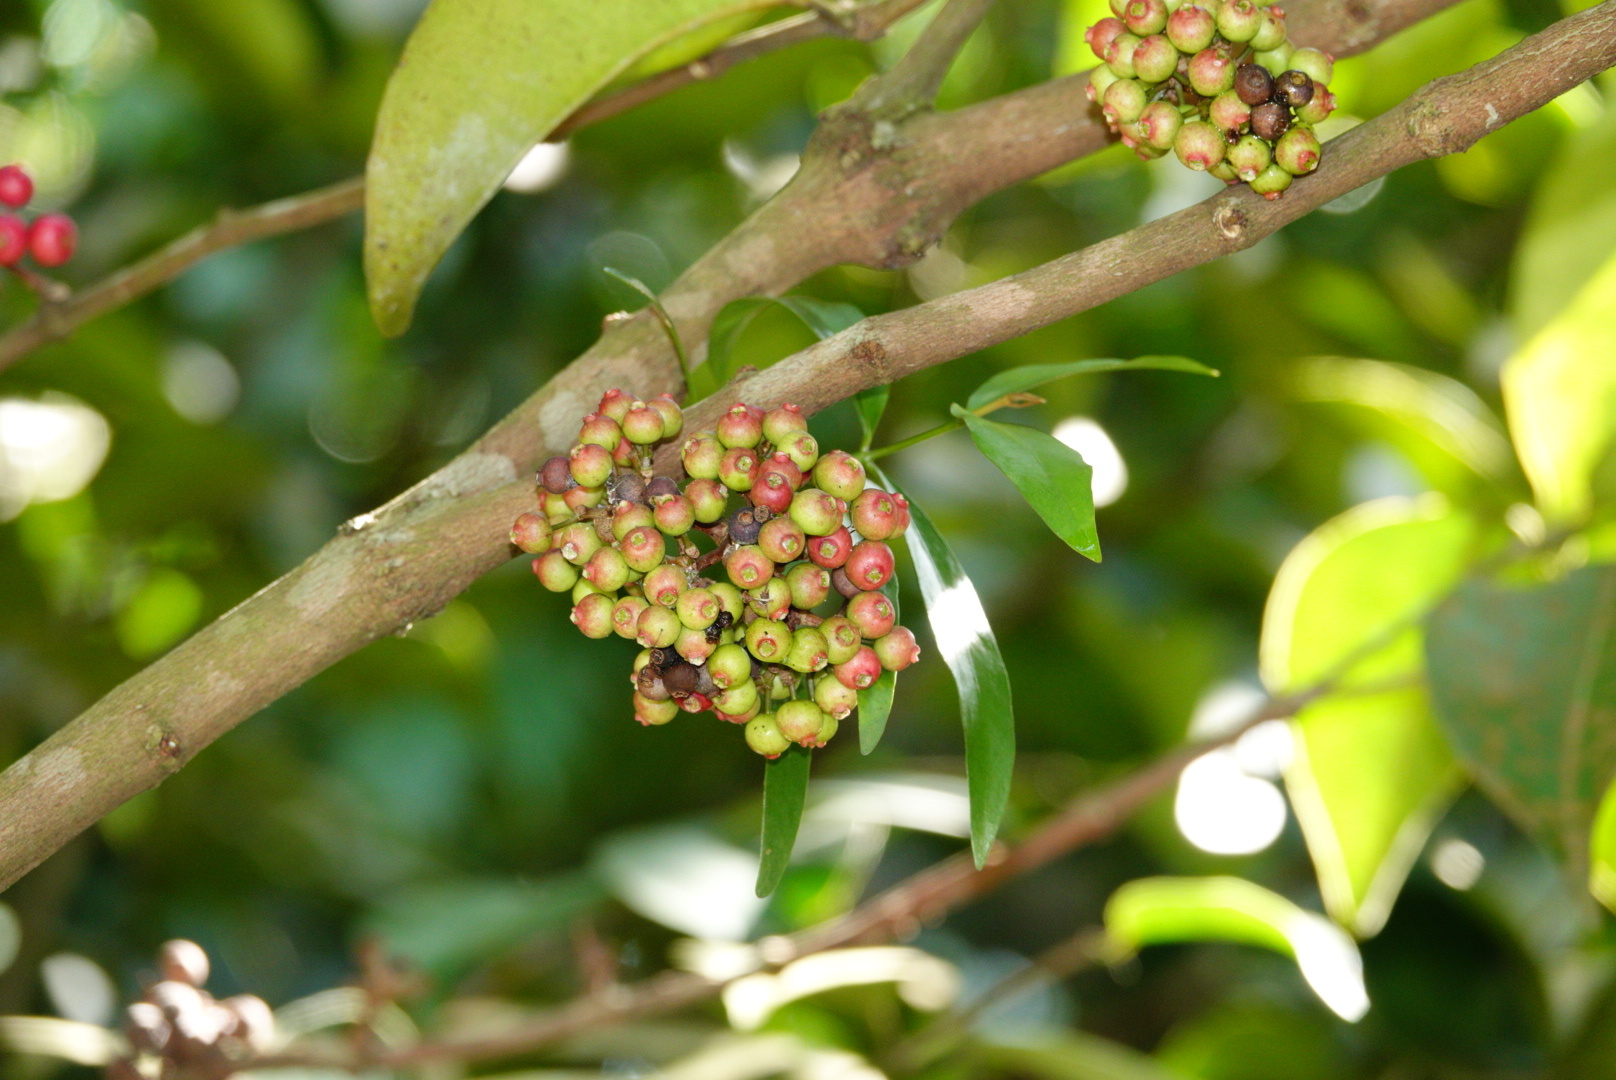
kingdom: Plantae
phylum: Tracheophyta
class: Magnoliopsida
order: Myrtales
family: Melastomataceae
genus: Memecylon
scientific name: Memecylon ovatum
